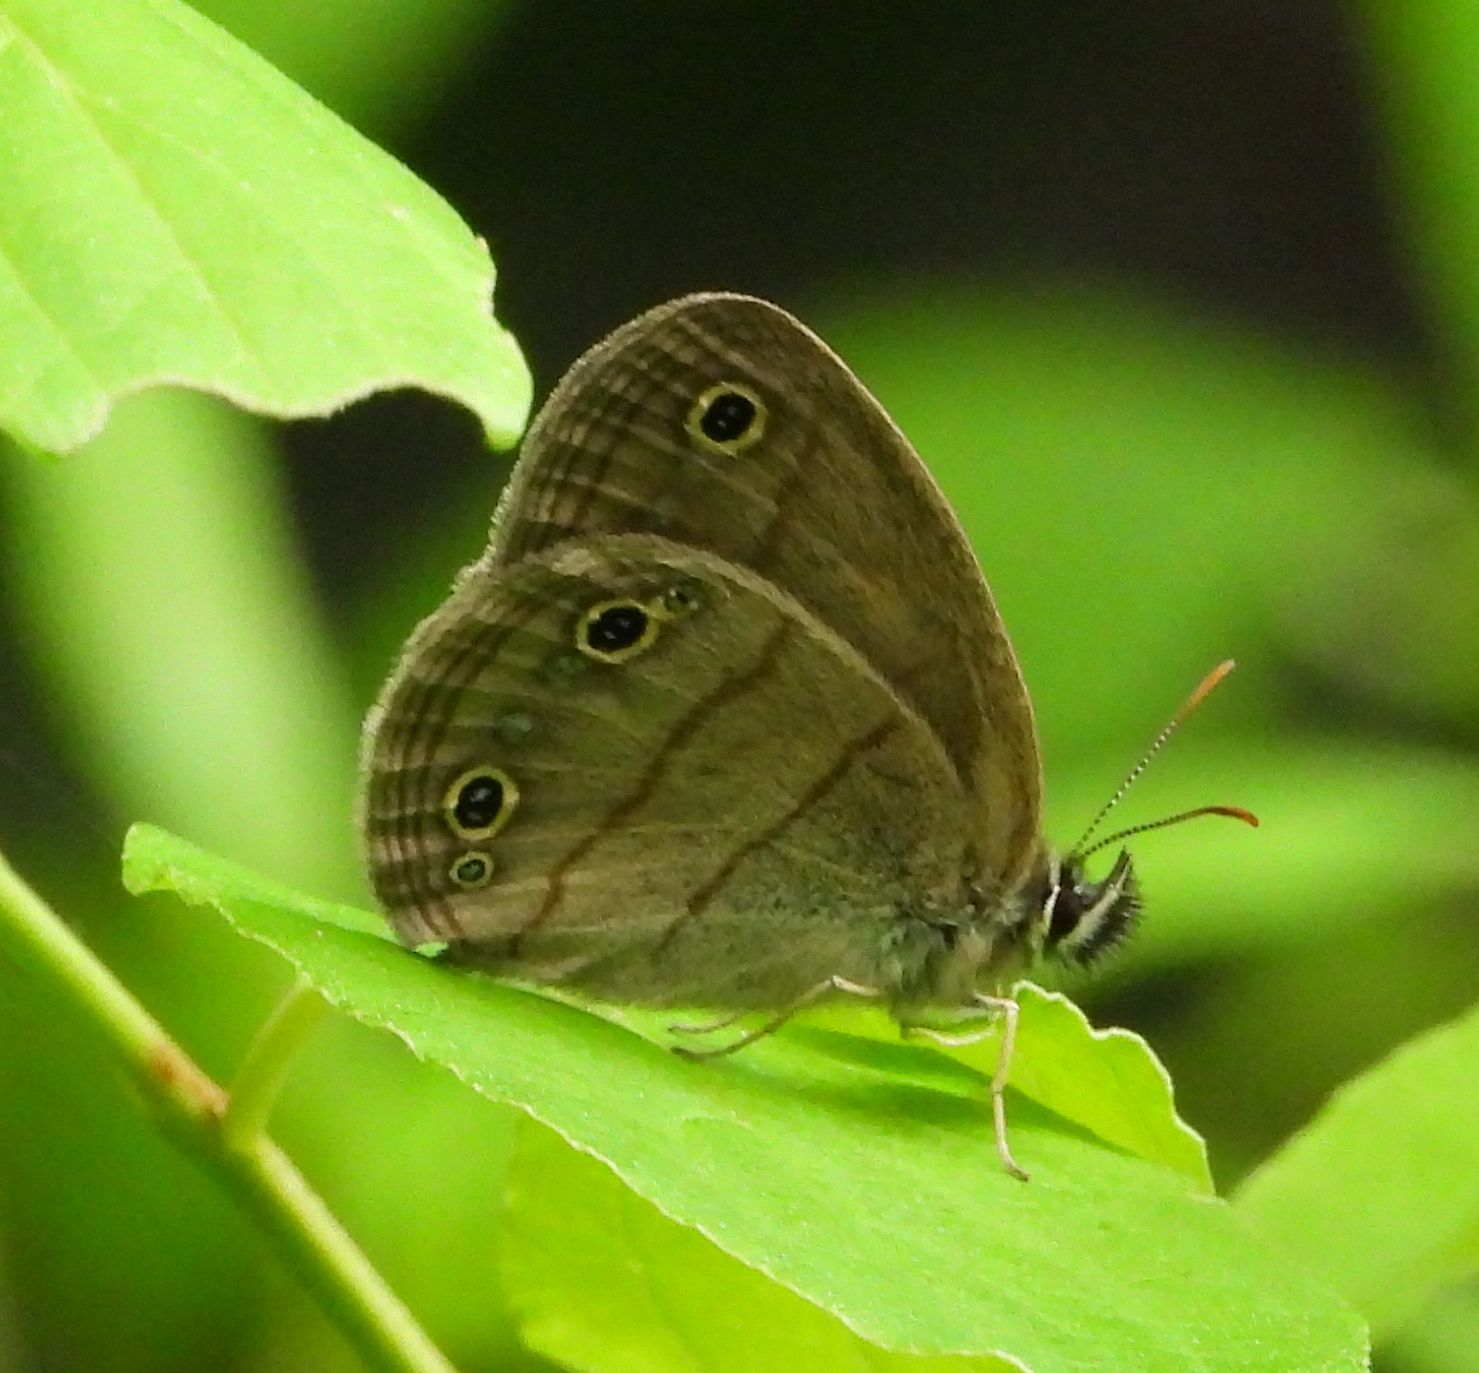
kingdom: Animalia
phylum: Arthropoda
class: Insecta
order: Lepidoptera
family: Nymphalidae
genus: Euptychia
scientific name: Euptychia cymela
